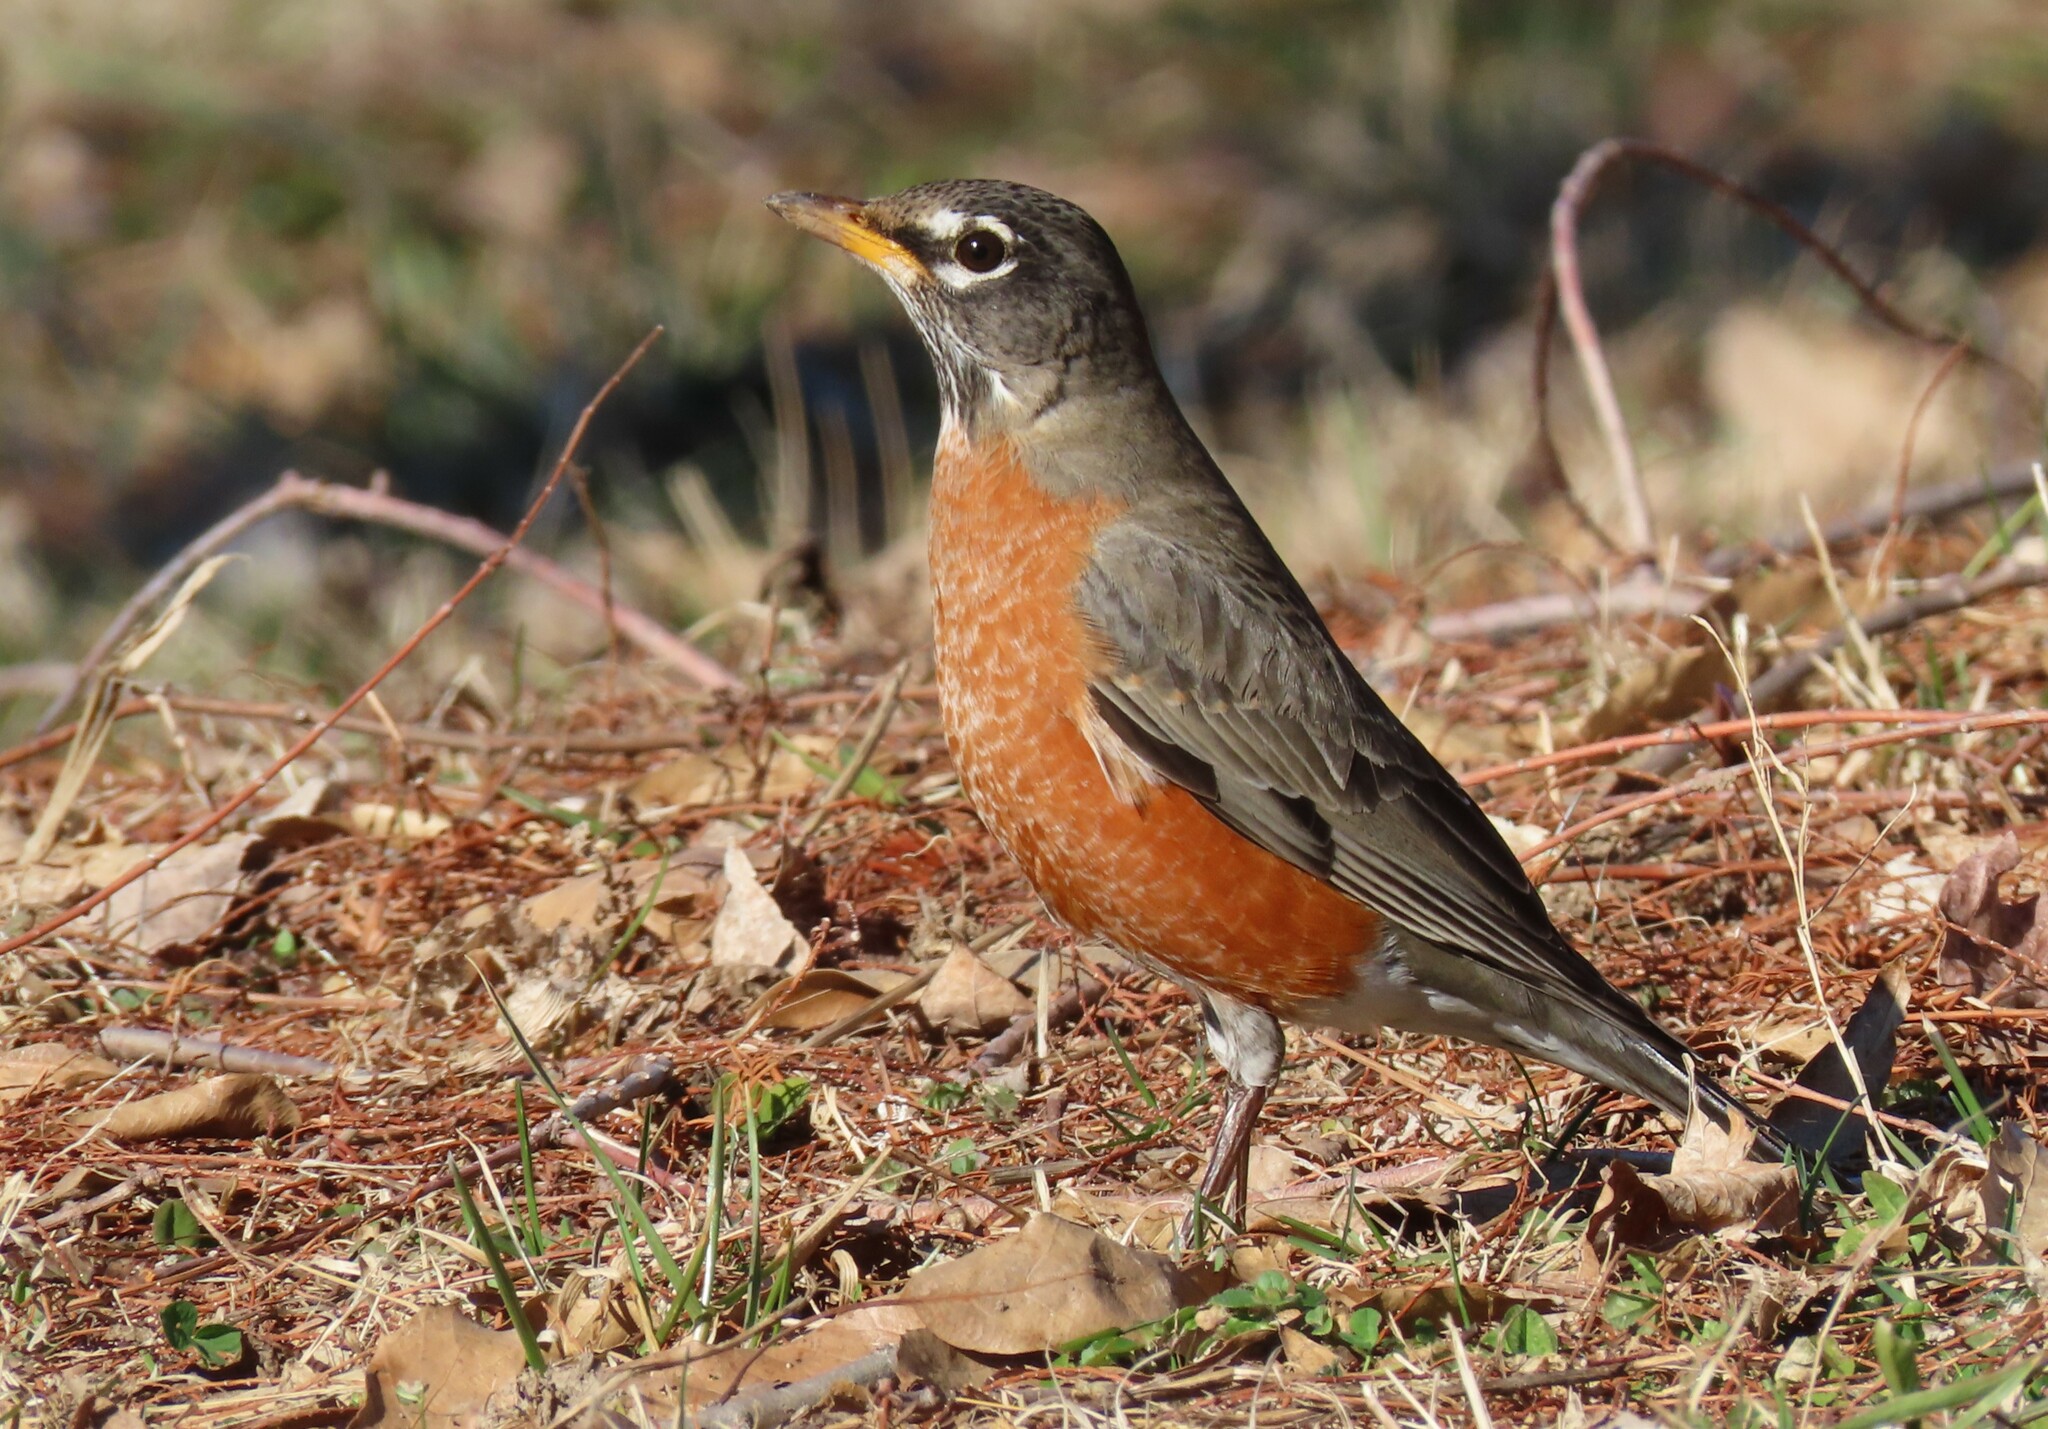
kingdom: Animalia
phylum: Chordata
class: Aves
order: Passeriformes
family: Turdidae
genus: Turdus
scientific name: Turdus migratorius
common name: American robin
